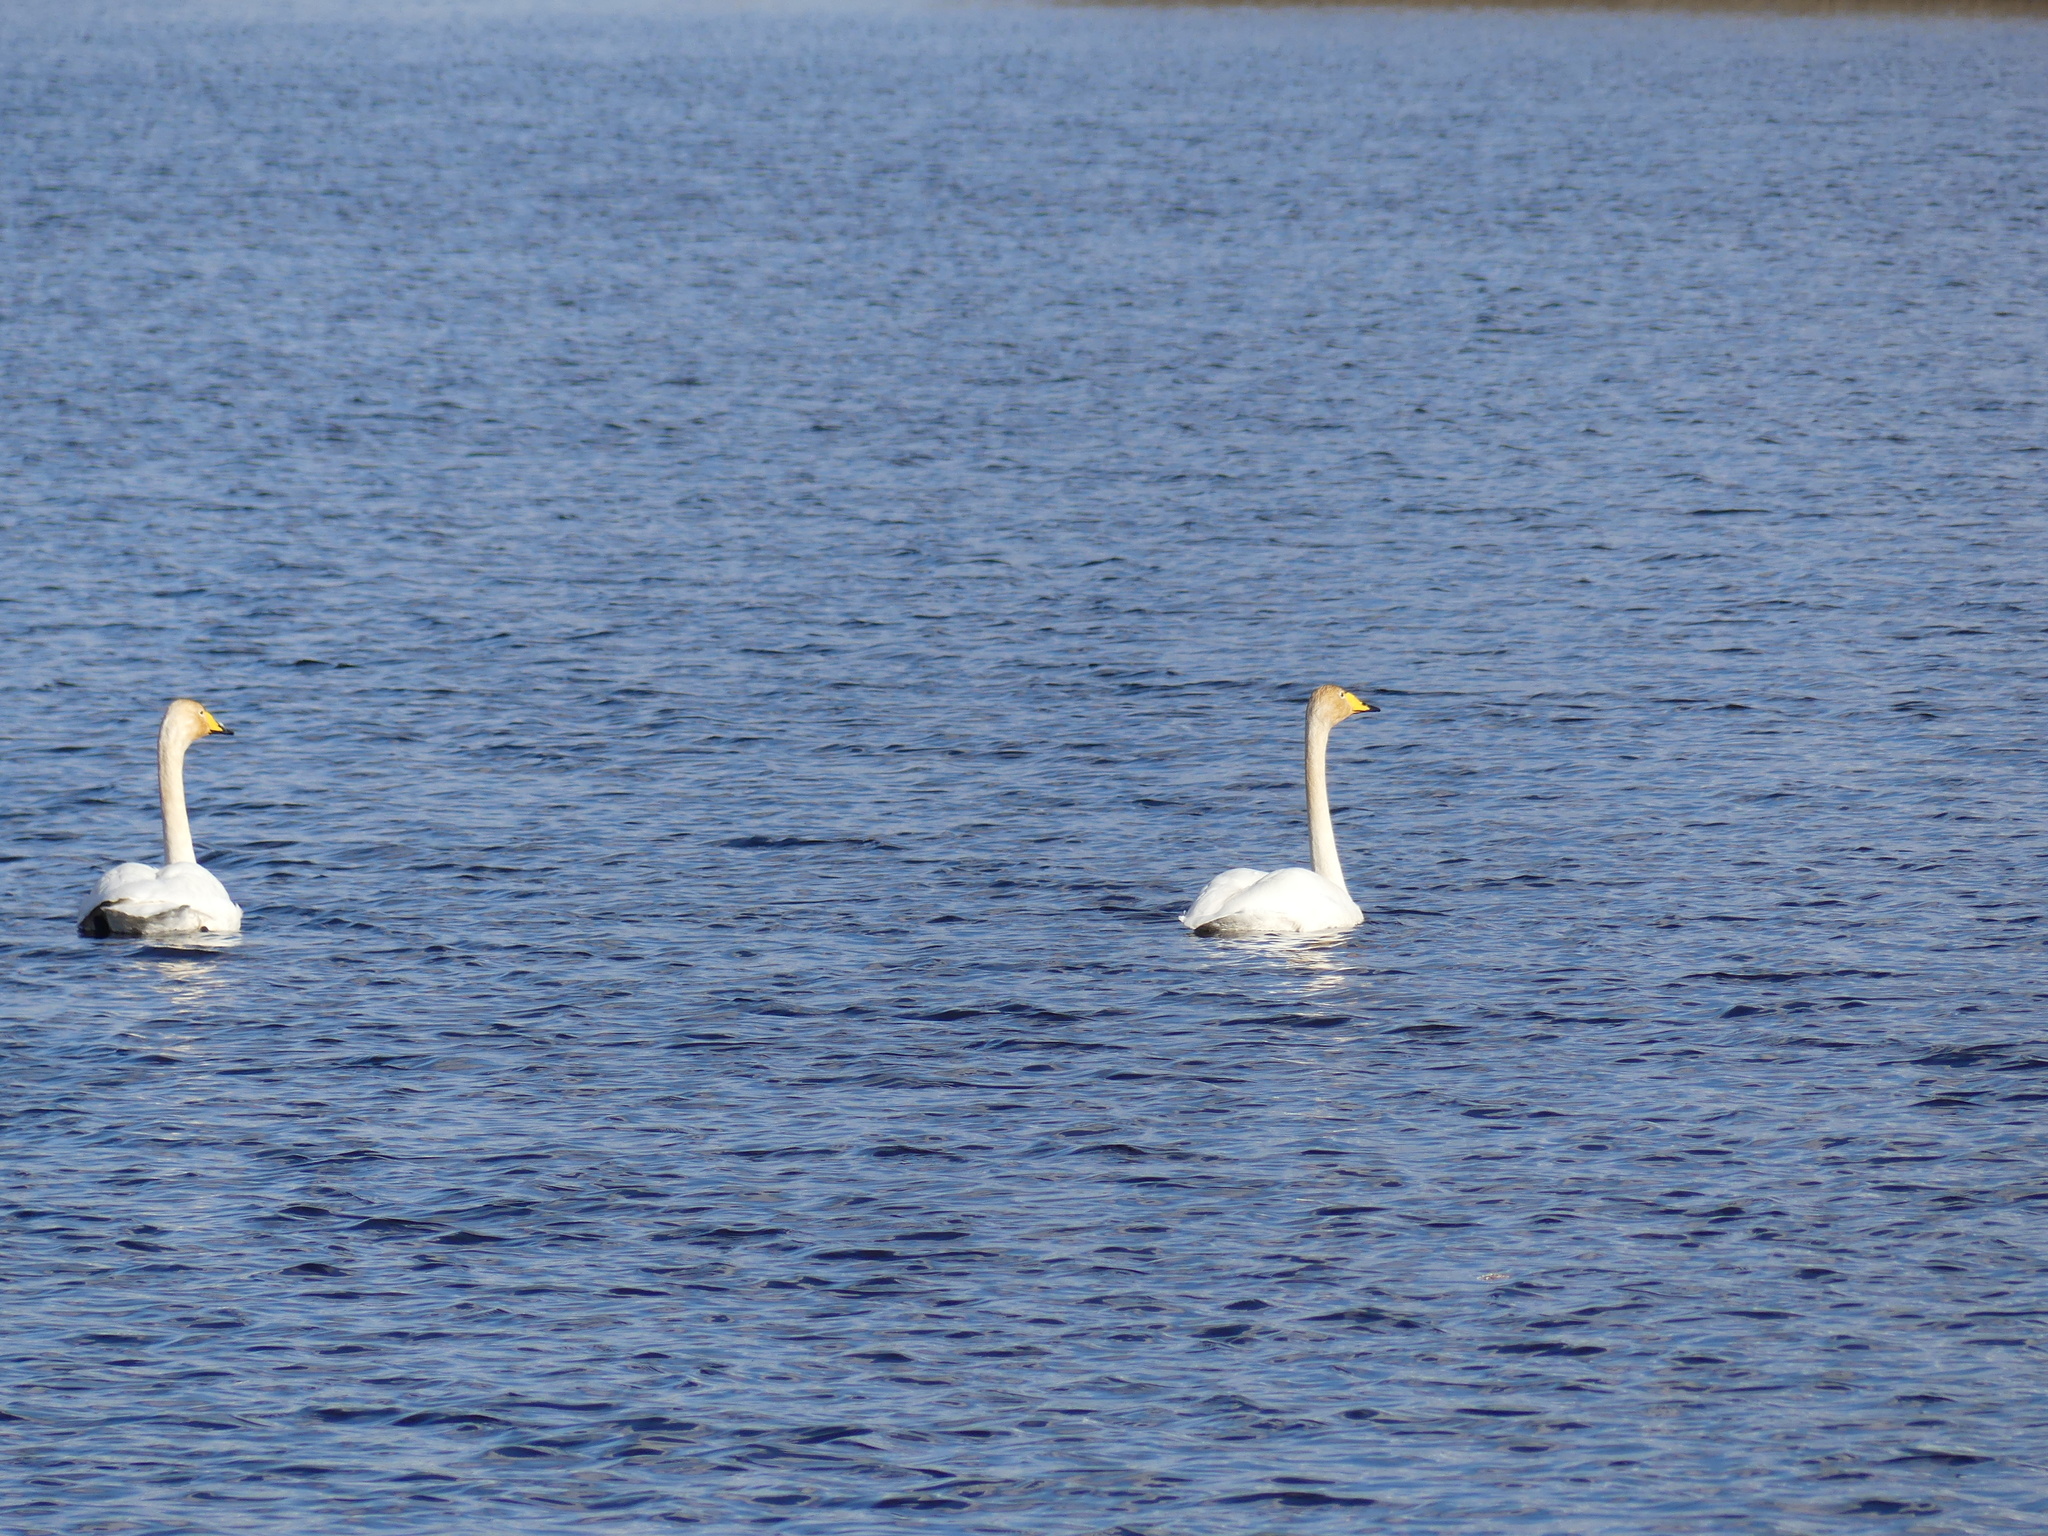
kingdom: Animalia
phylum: Chordata
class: Aves
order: Anseriformes
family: Anatidae
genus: Cygnus
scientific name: Cygnus cygnus
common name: Whooper swan
